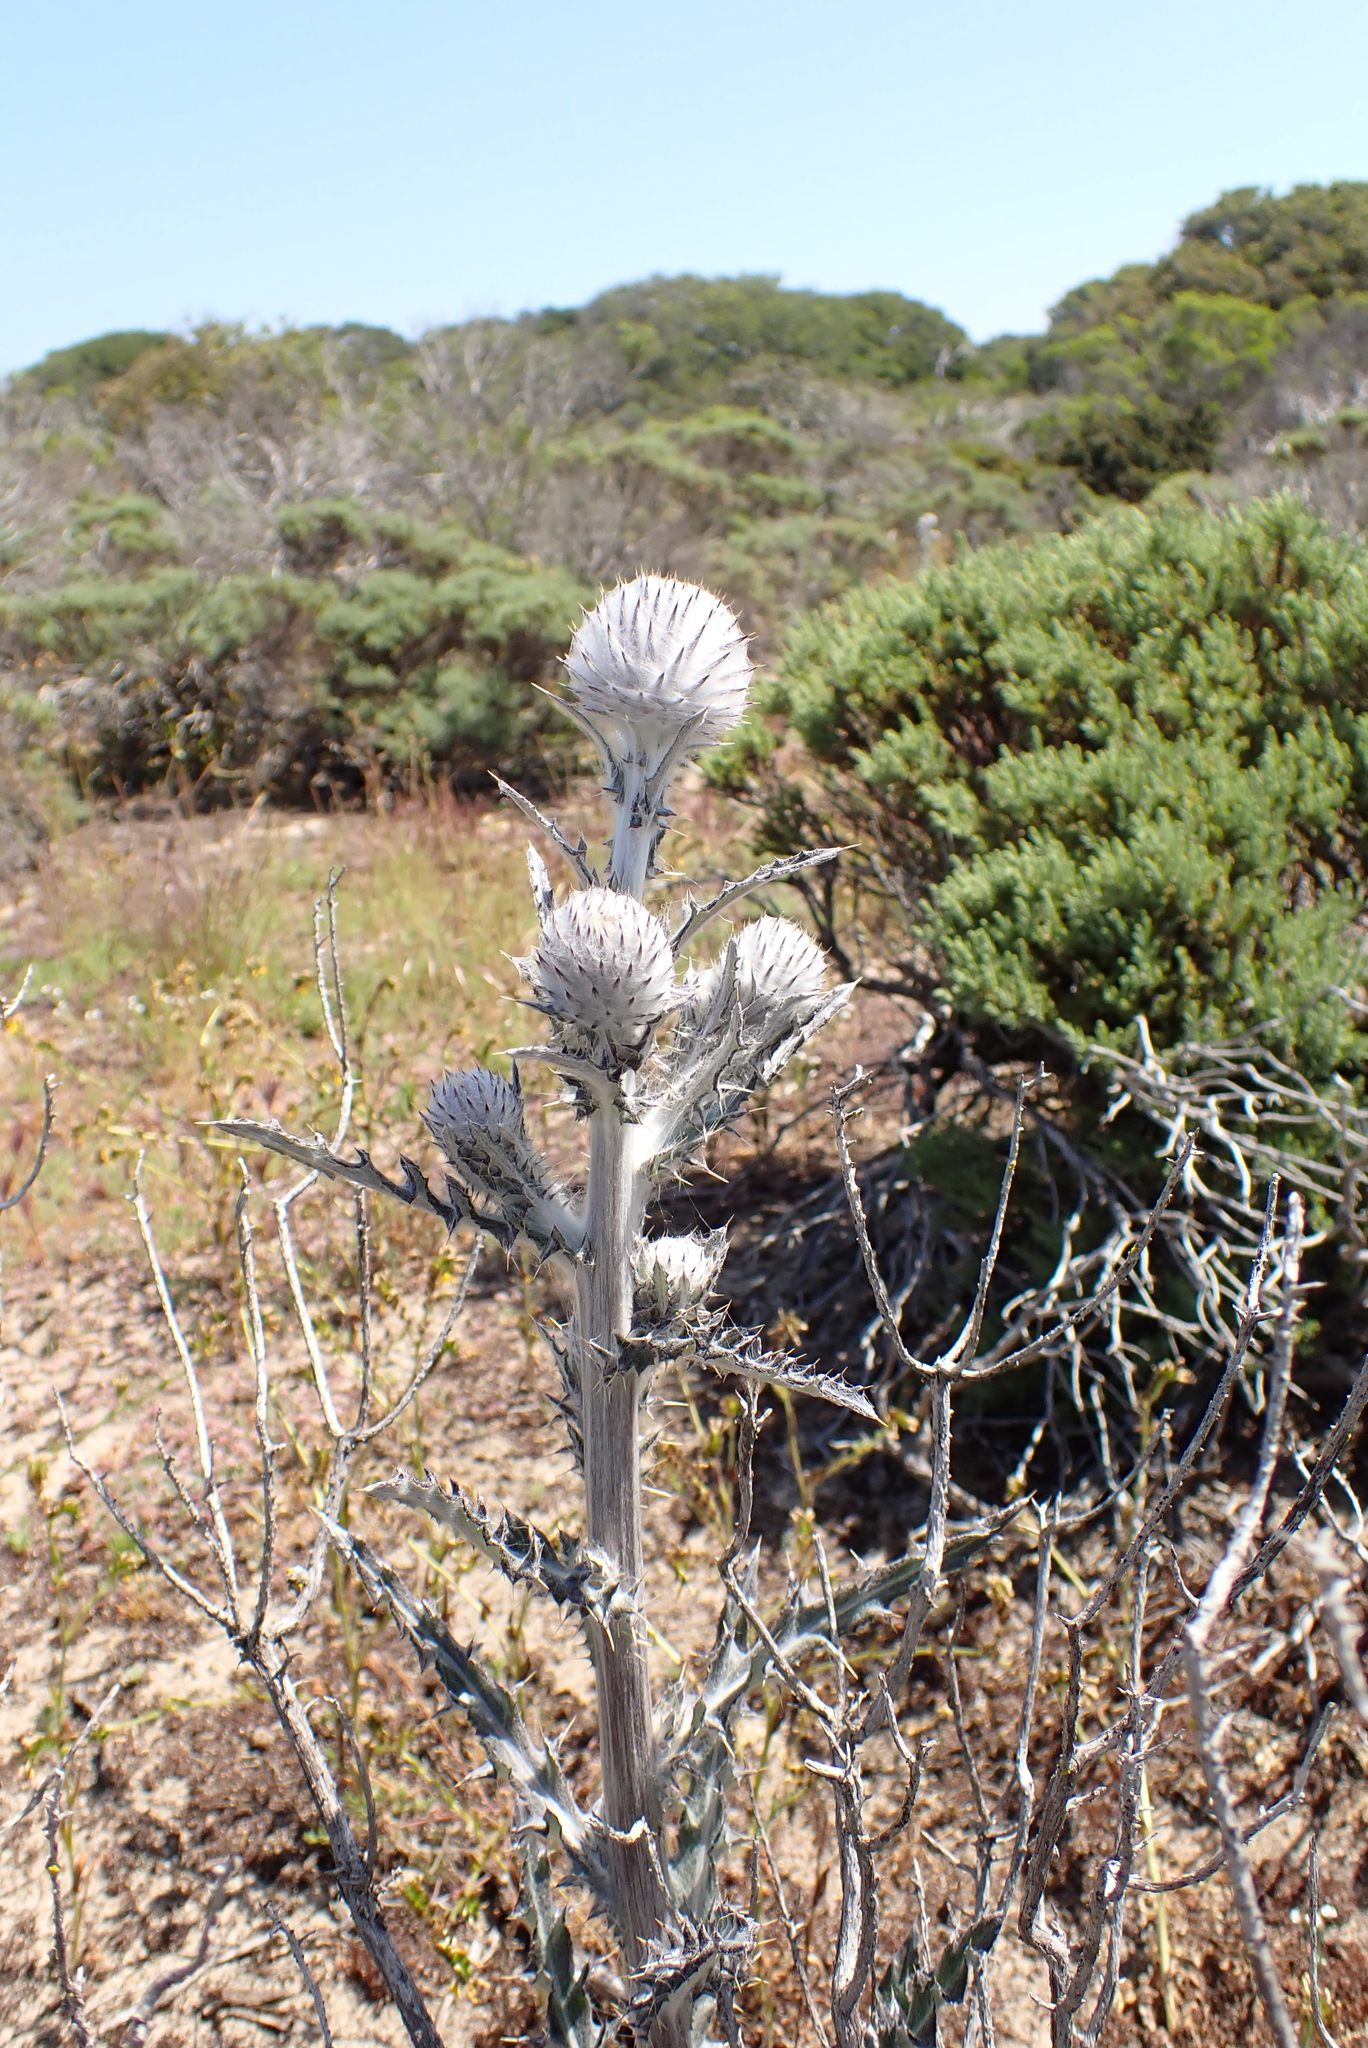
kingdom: Plantae
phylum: Tracheophyta
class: Magnoliopsida
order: Asterales
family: Asteraceae
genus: Cirsium
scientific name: Cirsium occidentale
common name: Western thistle
